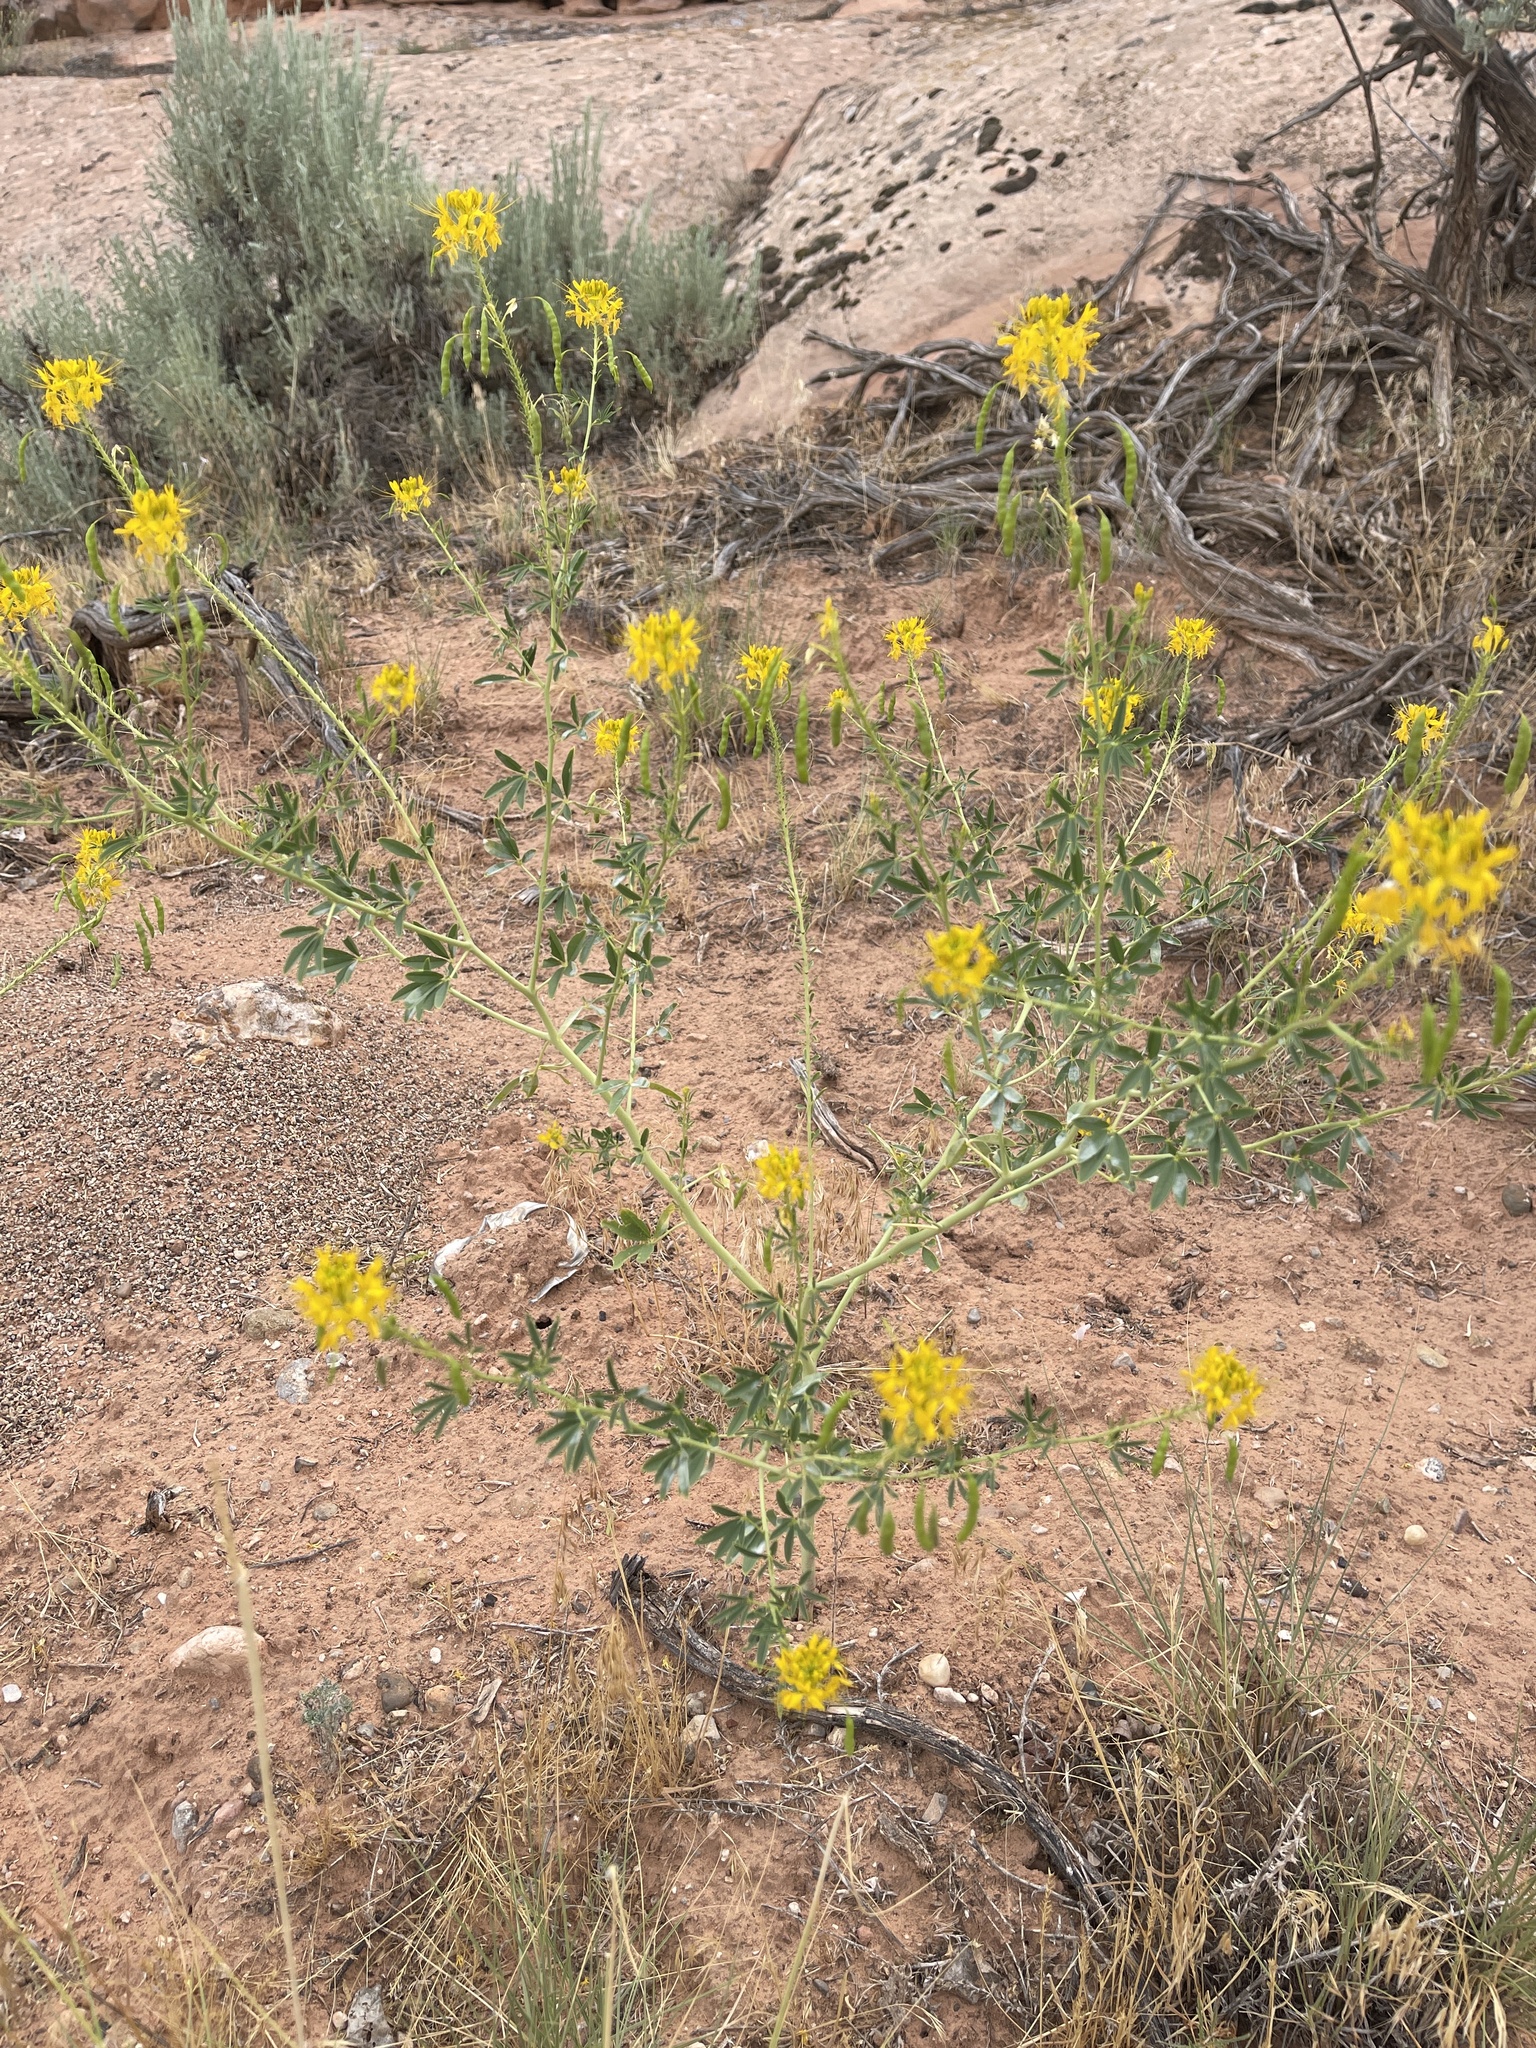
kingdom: Plantae
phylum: Tracheophyta
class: Magnoliopsida
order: Brassicales
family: Cleomaceae
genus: Cleomella
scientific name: Cleomella lutea
